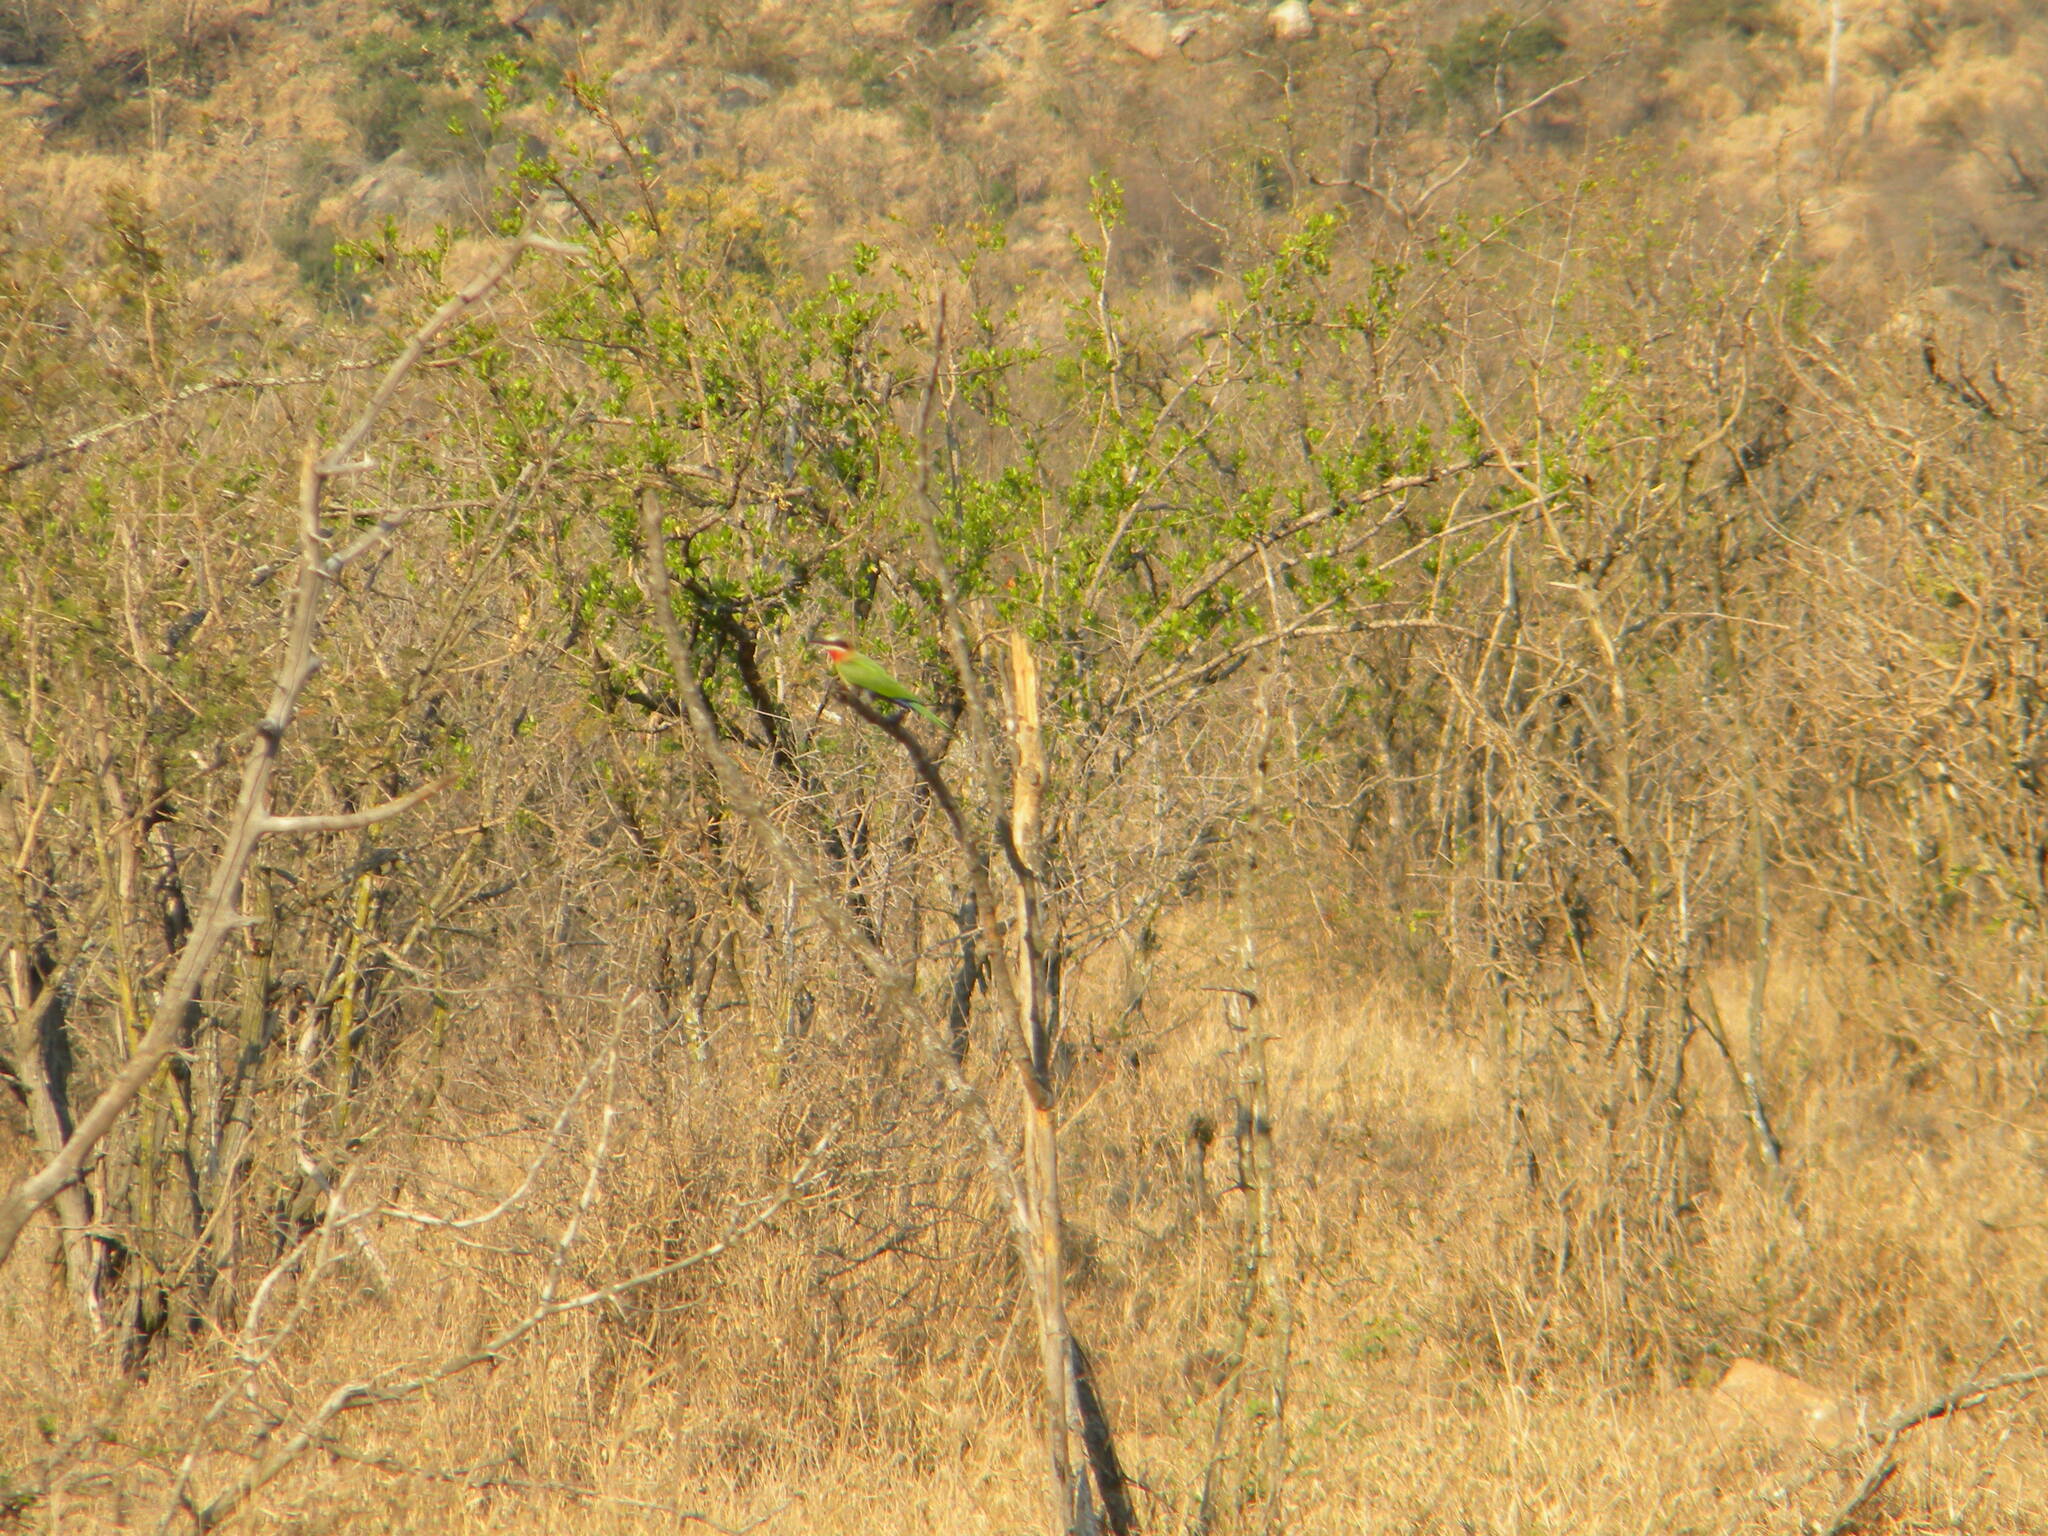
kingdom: Animalia
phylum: Chordata
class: Aves
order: Coraciiformes
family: Meropidae
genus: Merops
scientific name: Merops bullockoides
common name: White-fronted bee-eater
